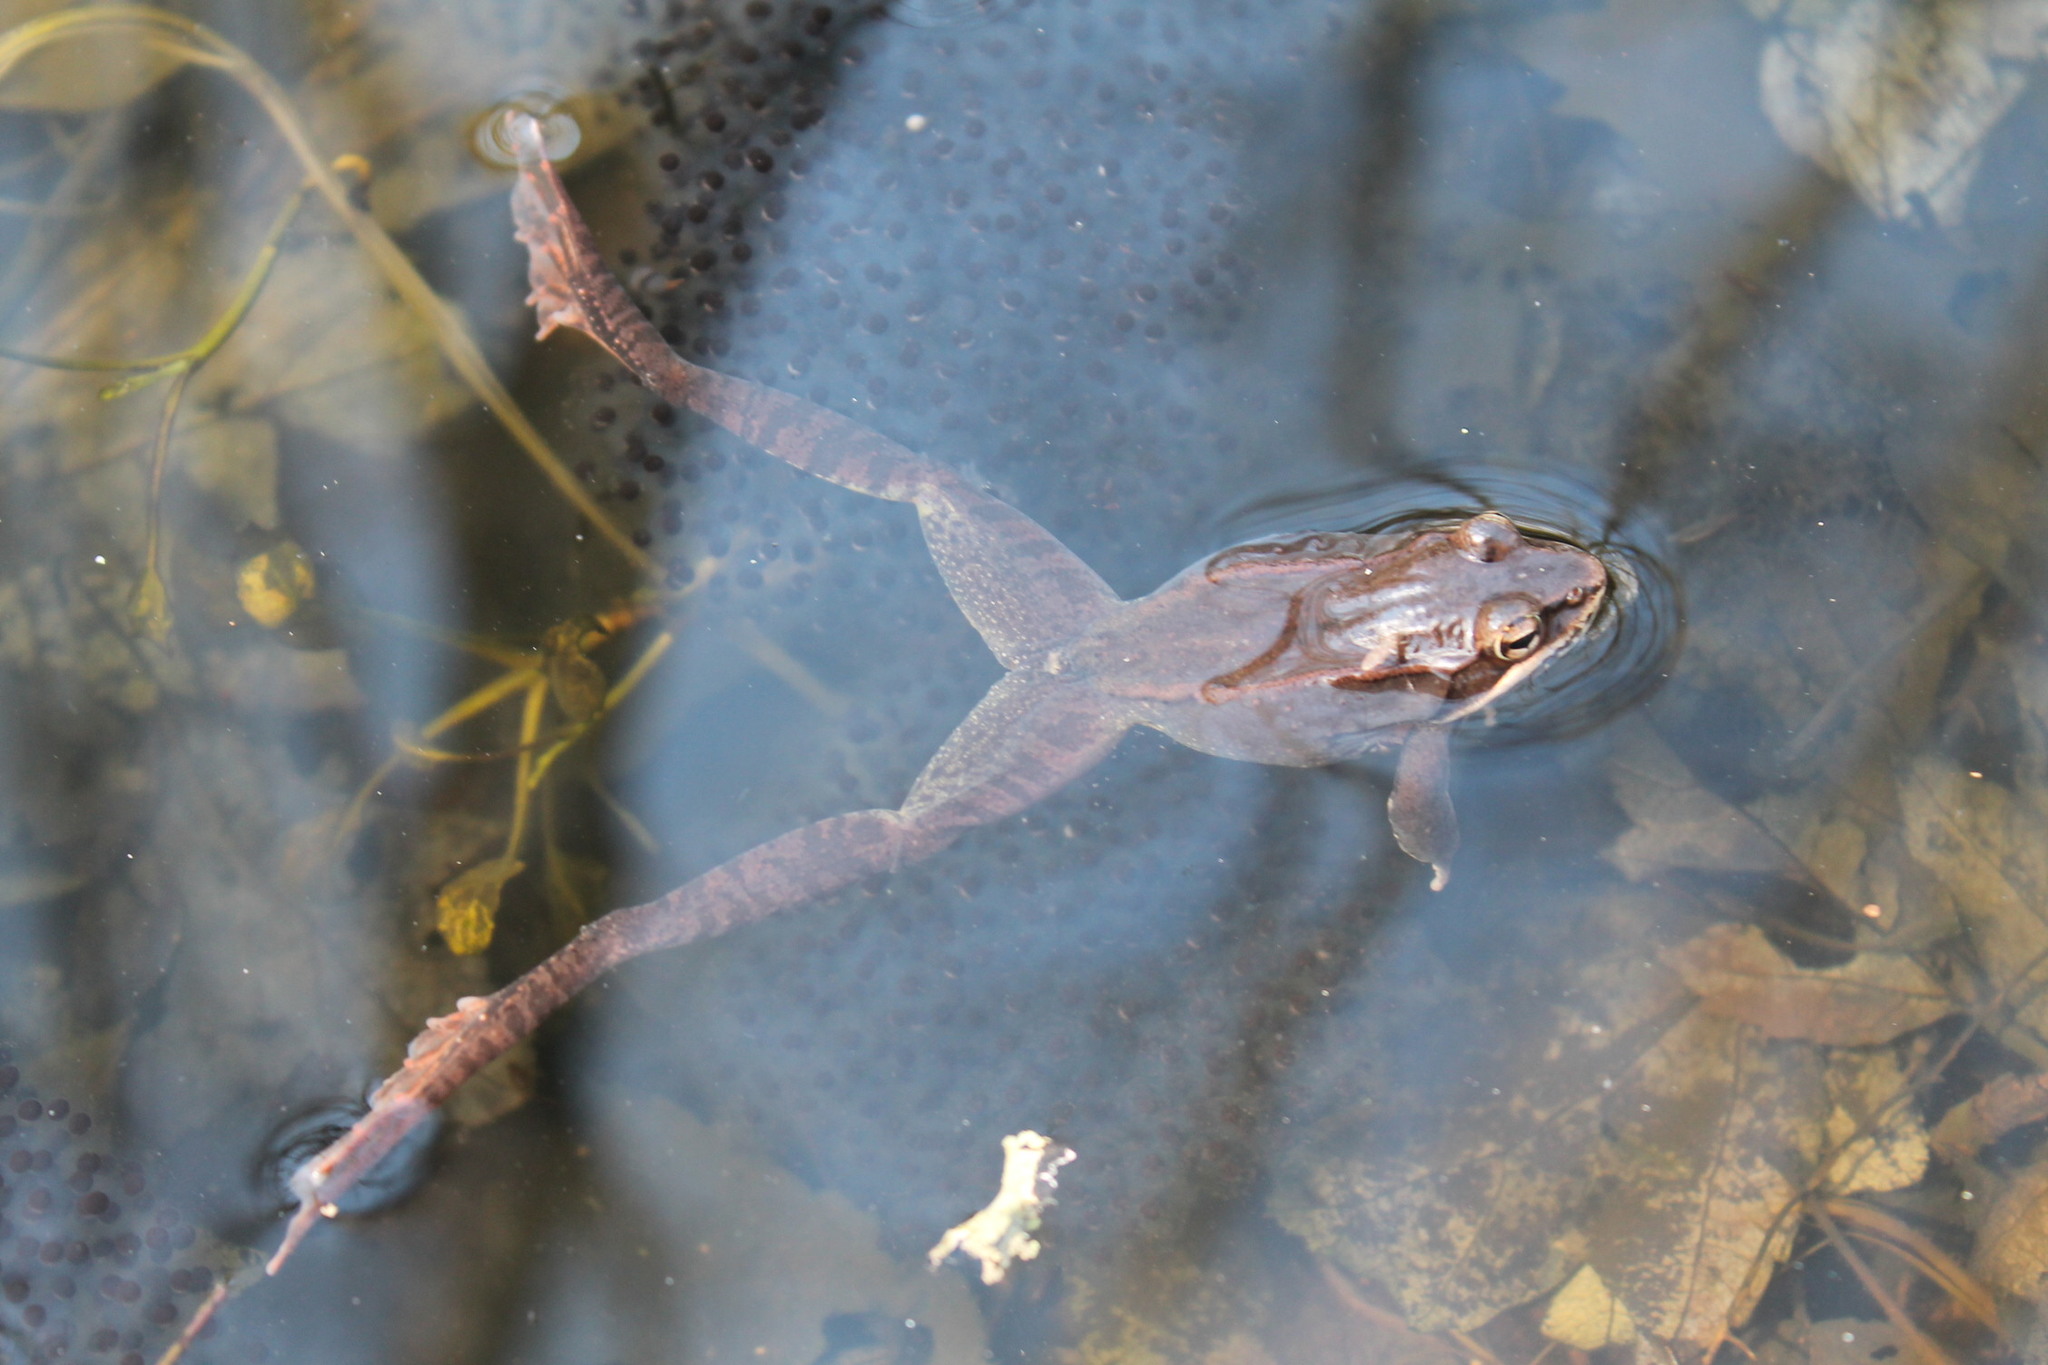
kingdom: Animalia
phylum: Chordata
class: Amphibia
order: Anura
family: Ranidae
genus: Lithobates
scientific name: Lithobates sylvaticus
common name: Wood frog
